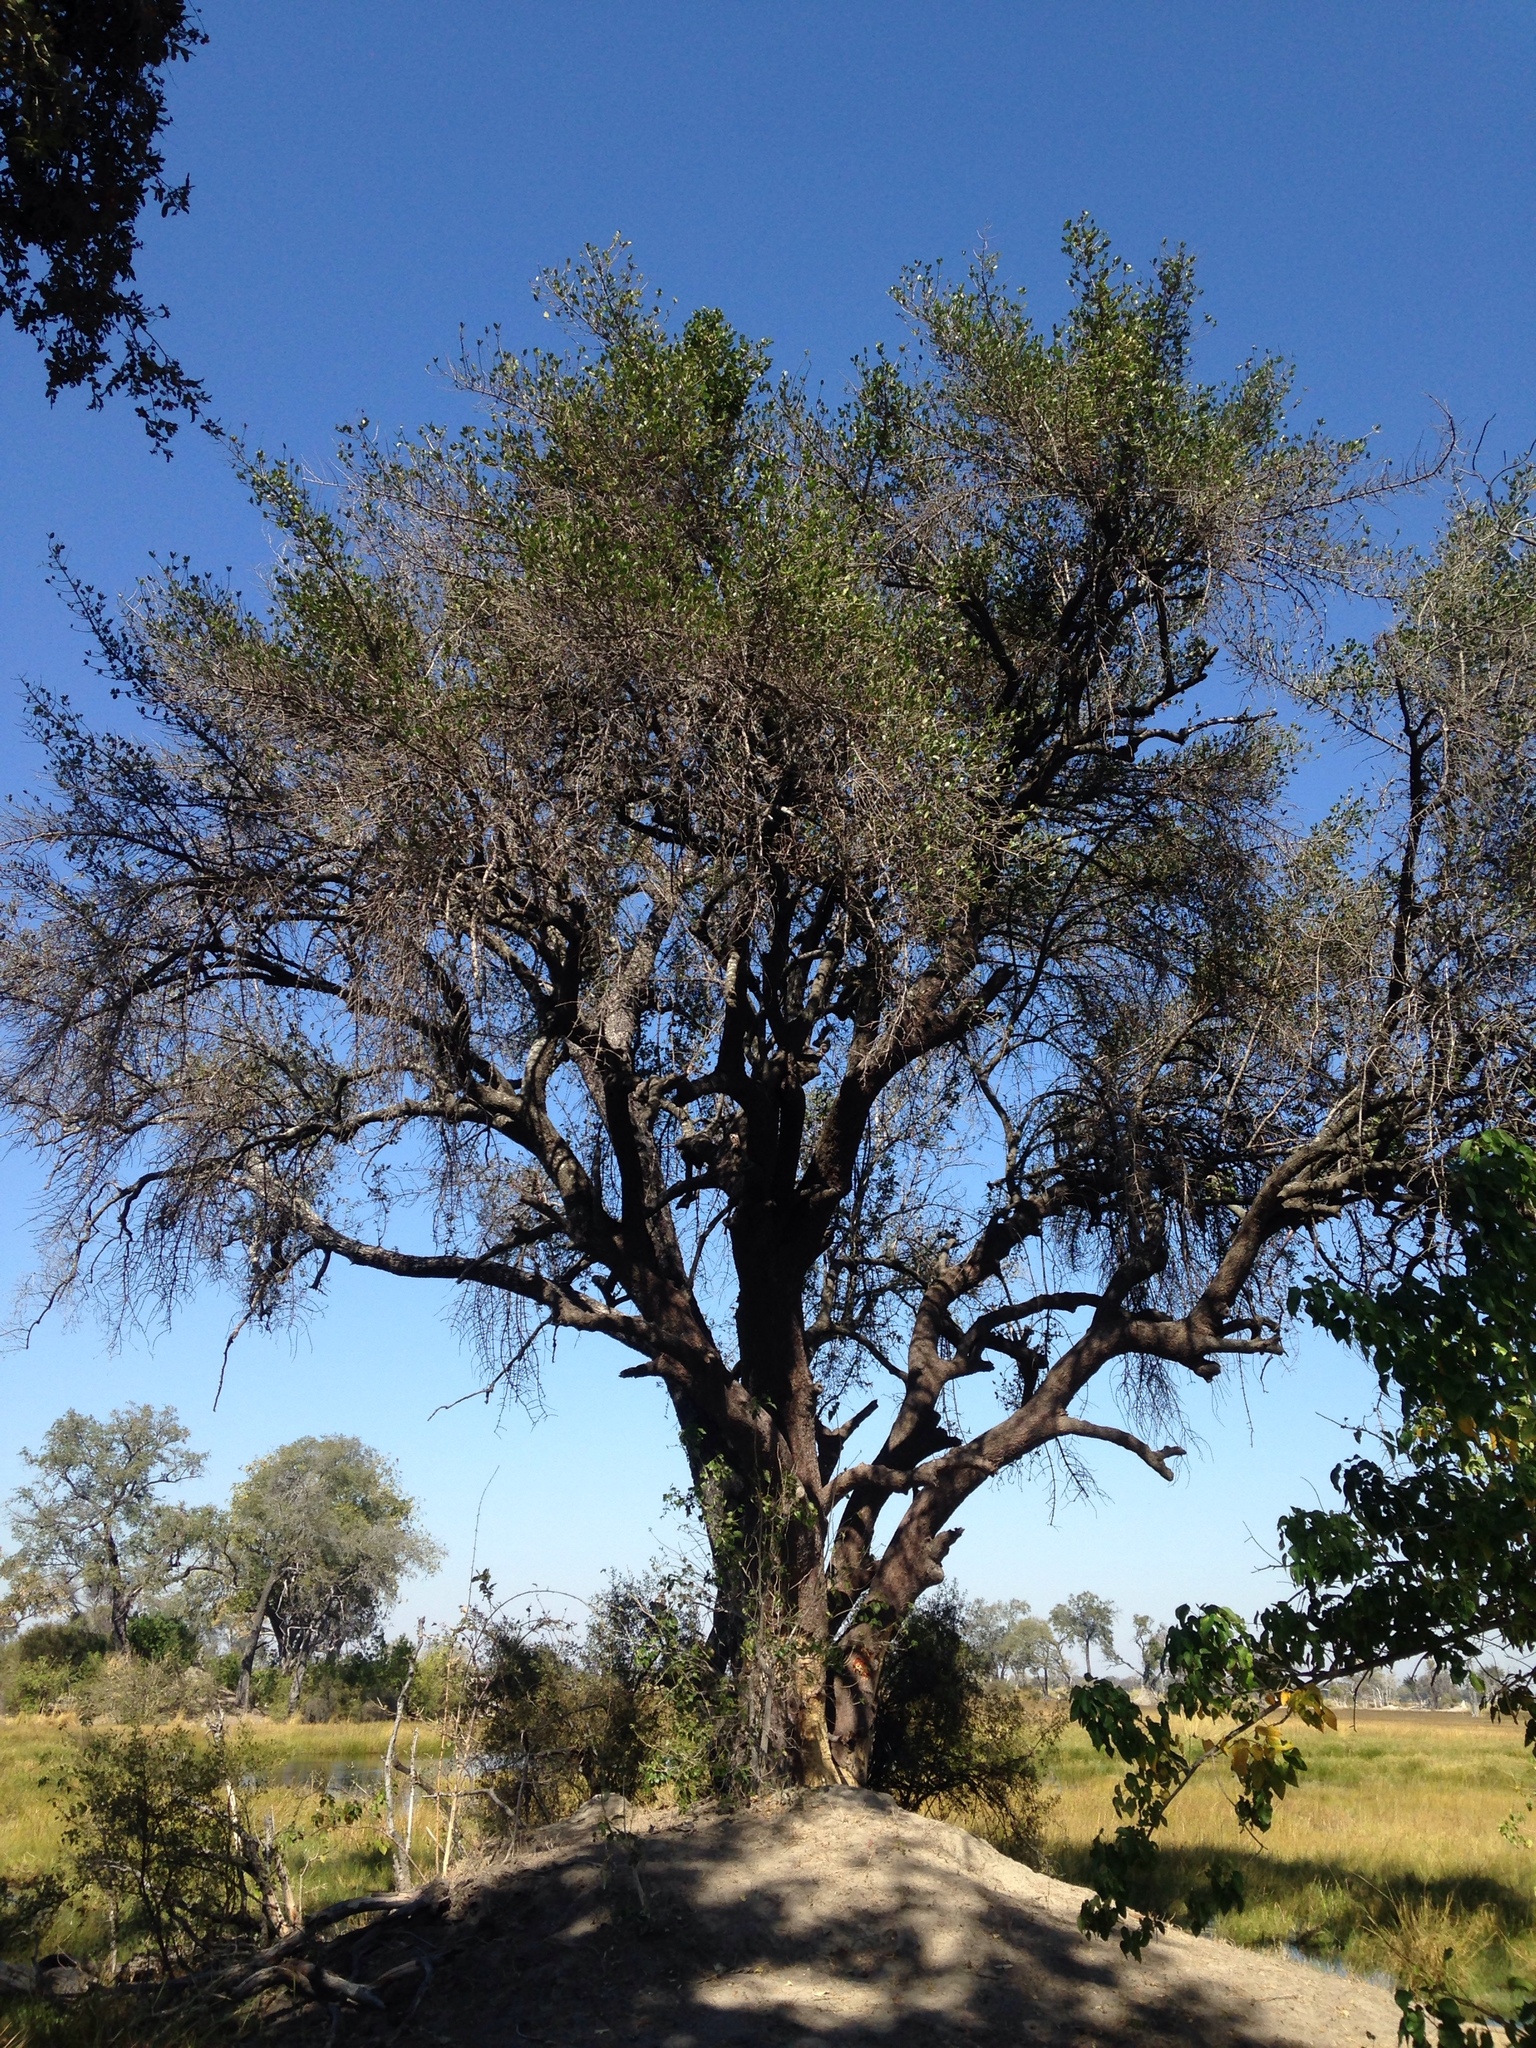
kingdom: Plantae
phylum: Tracheophyta
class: Magnoliopsida
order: Malpighiales
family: Clusiaceae
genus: Garcinia
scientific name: Garcinia livingstonei
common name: African mangosteen
